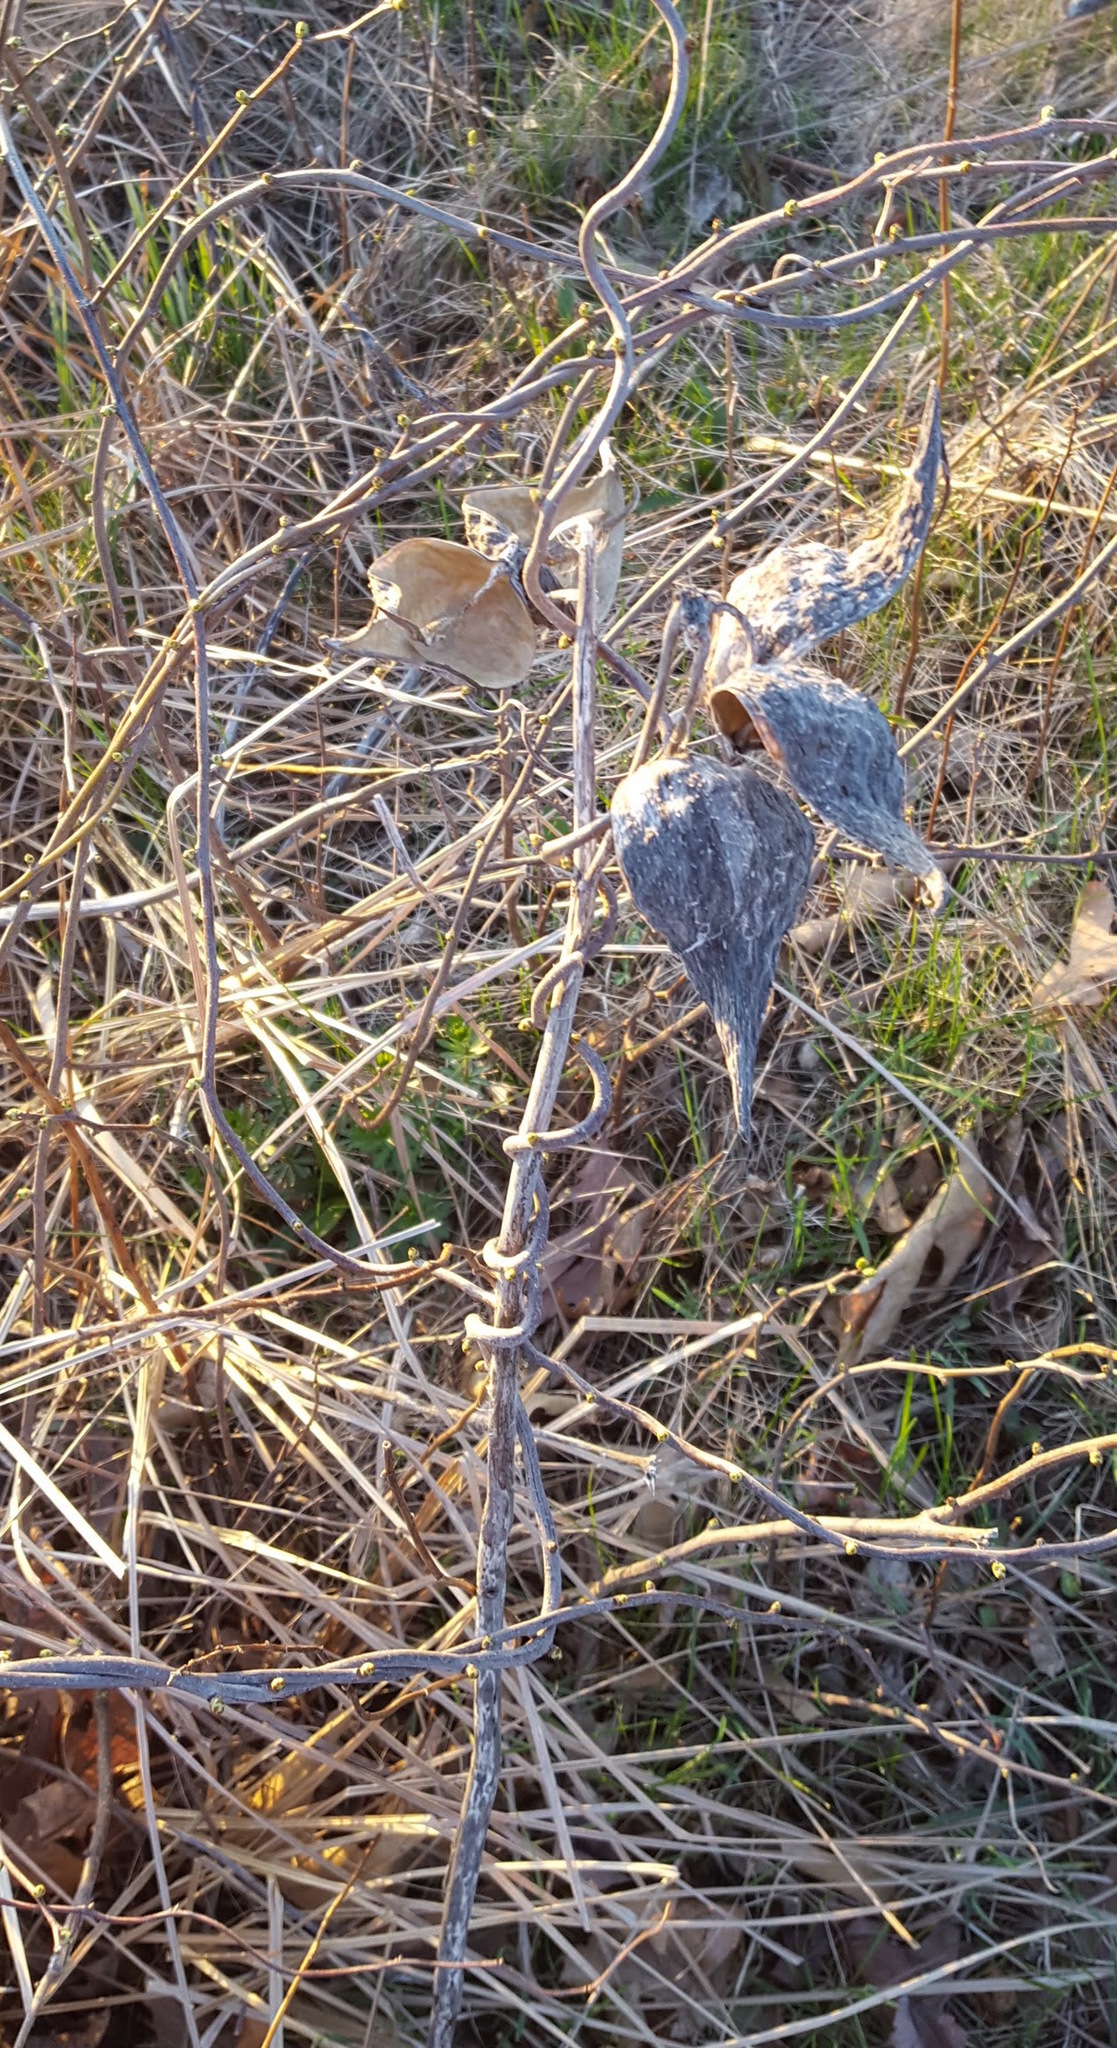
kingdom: Plantae
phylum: Tracheophyta
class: Magnoliopsida
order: Gentianales
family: Apocynaceae
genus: Asclepias
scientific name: Asclepias syriaca
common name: Common milkweed
